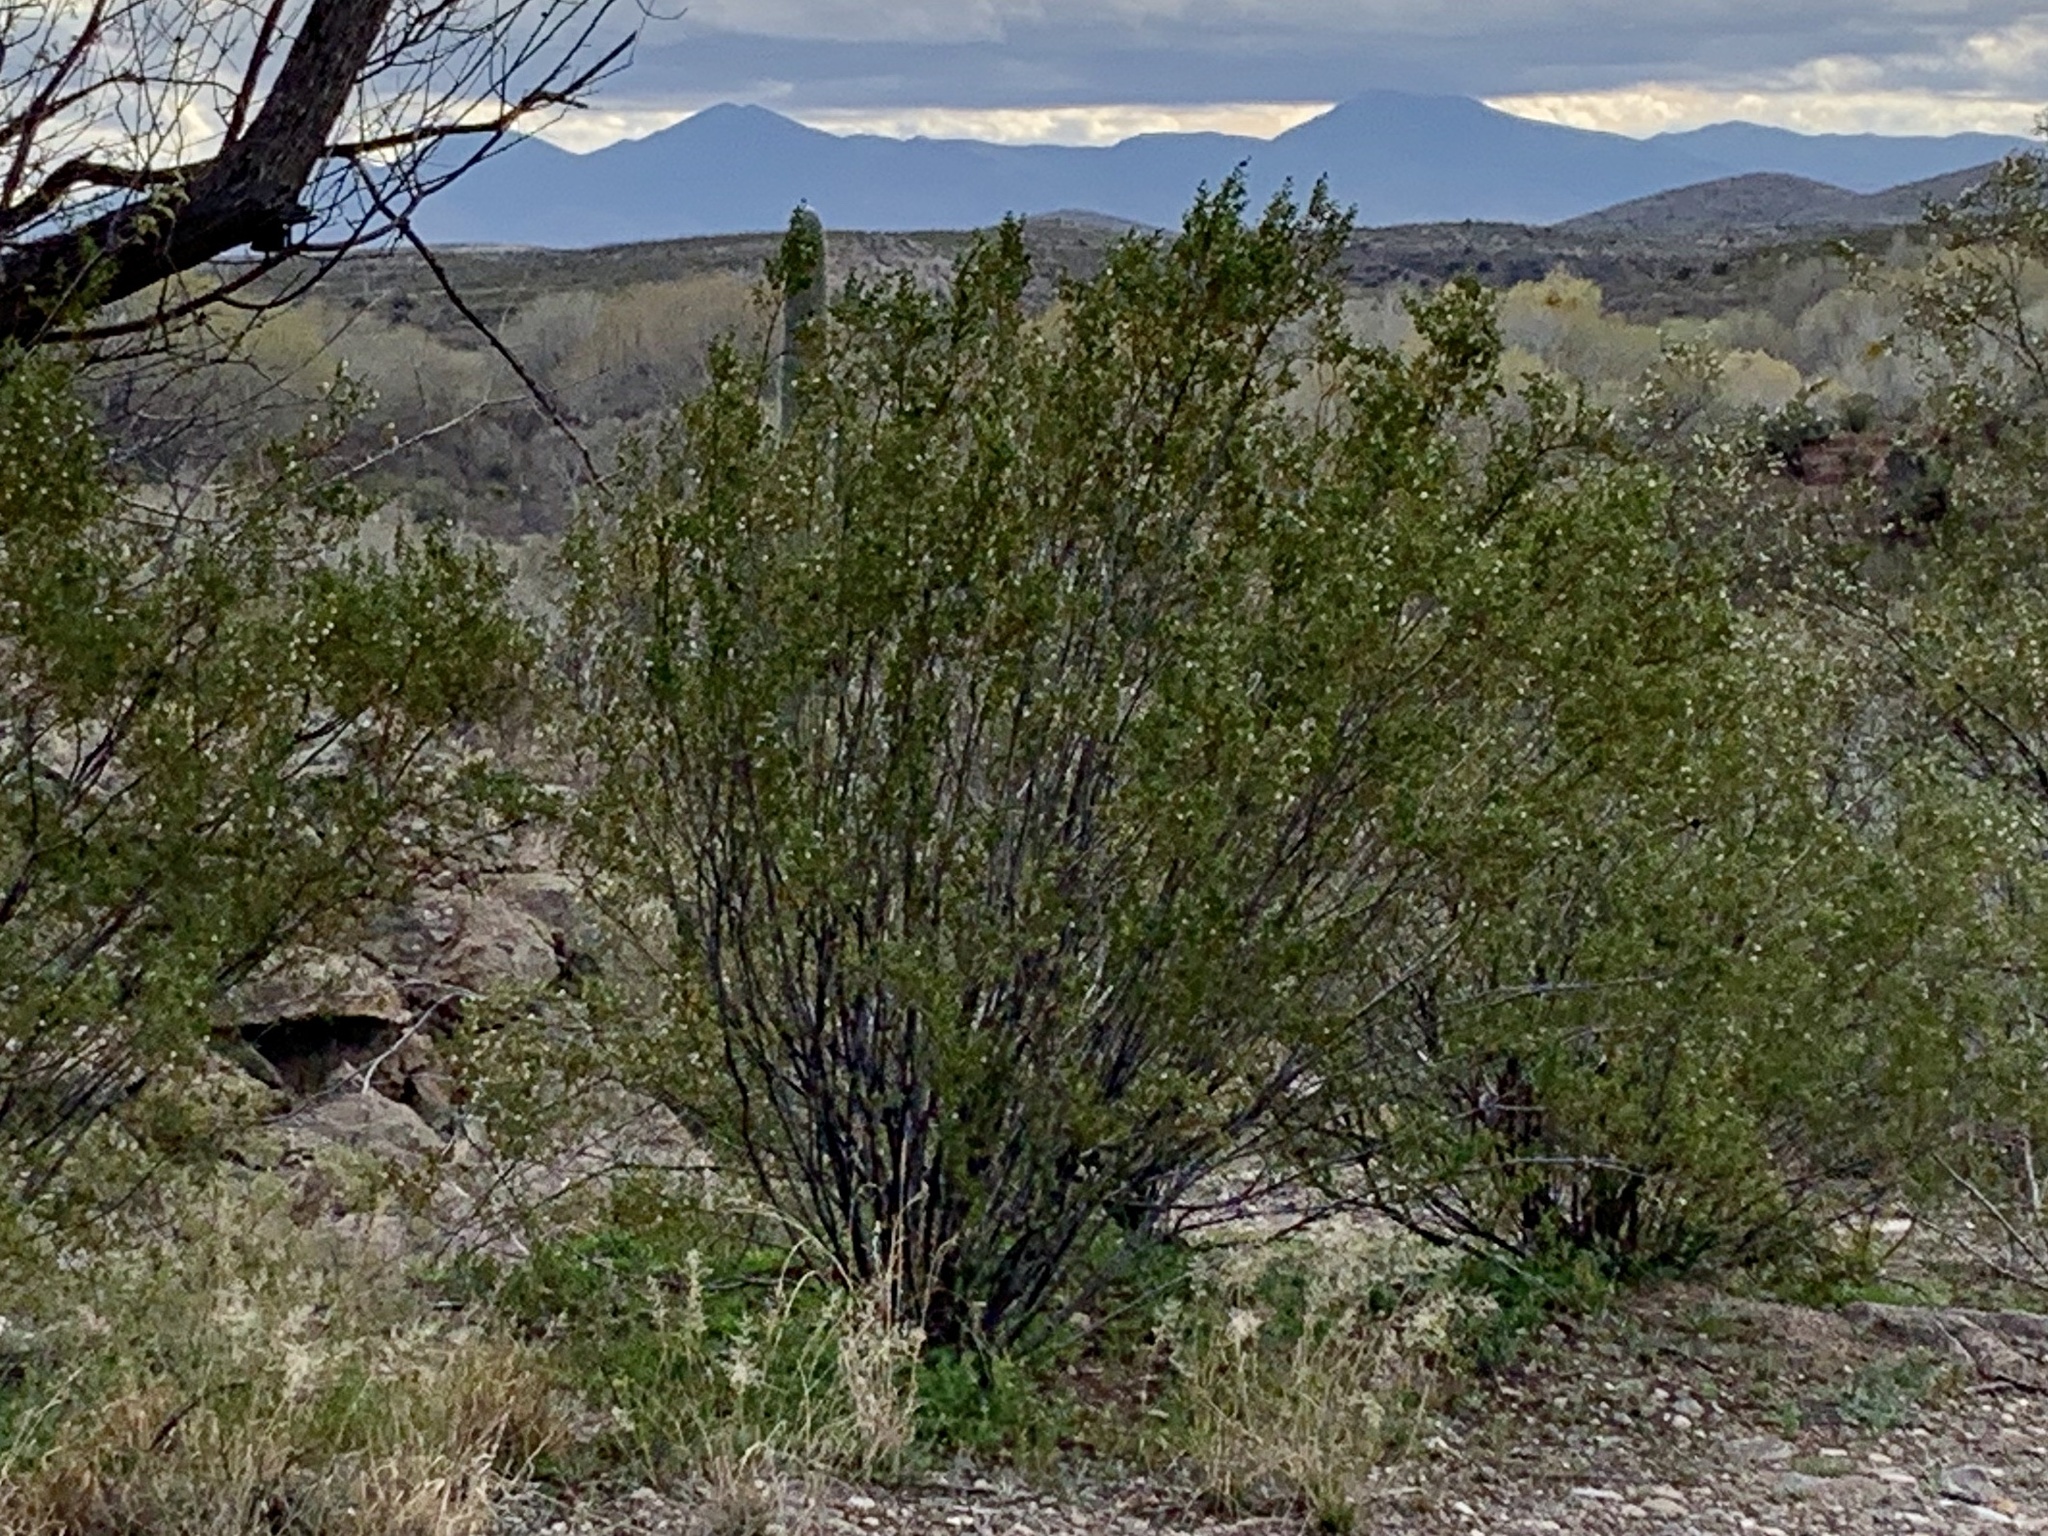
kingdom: Plantae
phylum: Tracheophyta
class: Magnoliopsida
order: Zygophyllales
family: Zygophyllaceae
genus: Larrea
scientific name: Larrea tridentata
